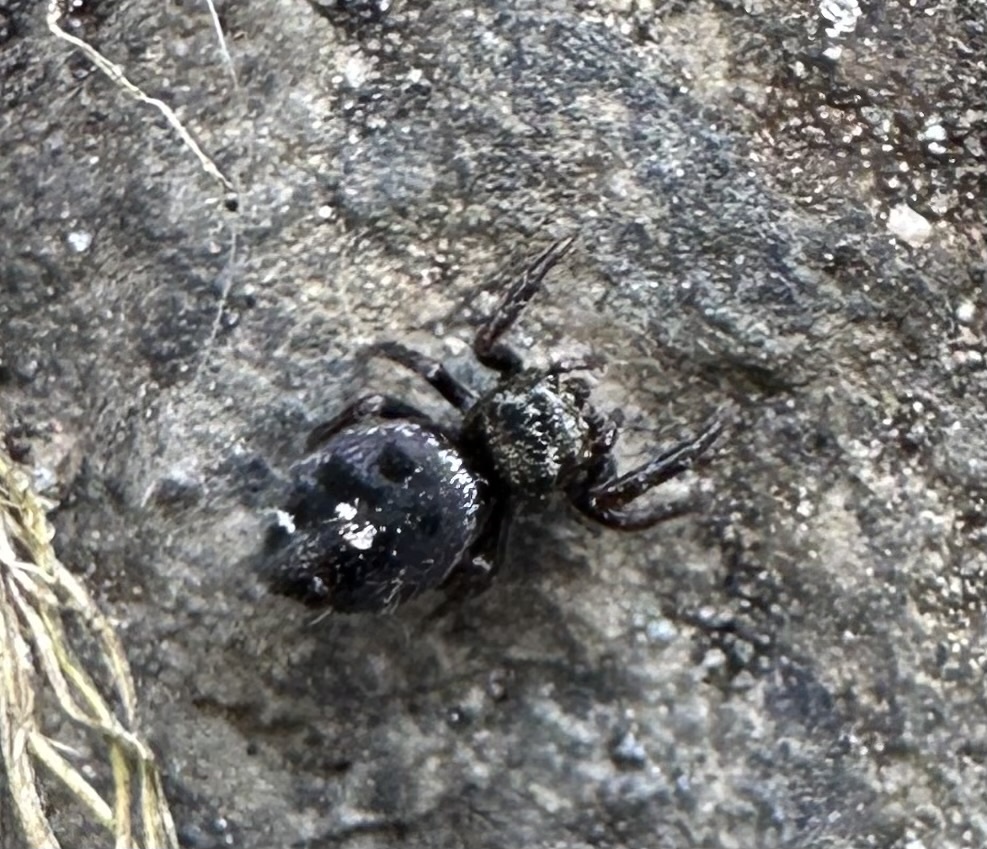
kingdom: Animalia
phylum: Arthropoda
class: Arachnida
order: Araneae
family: Salticidae
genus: Phidippus
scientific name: Phidippus audax
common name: Bold jumper
